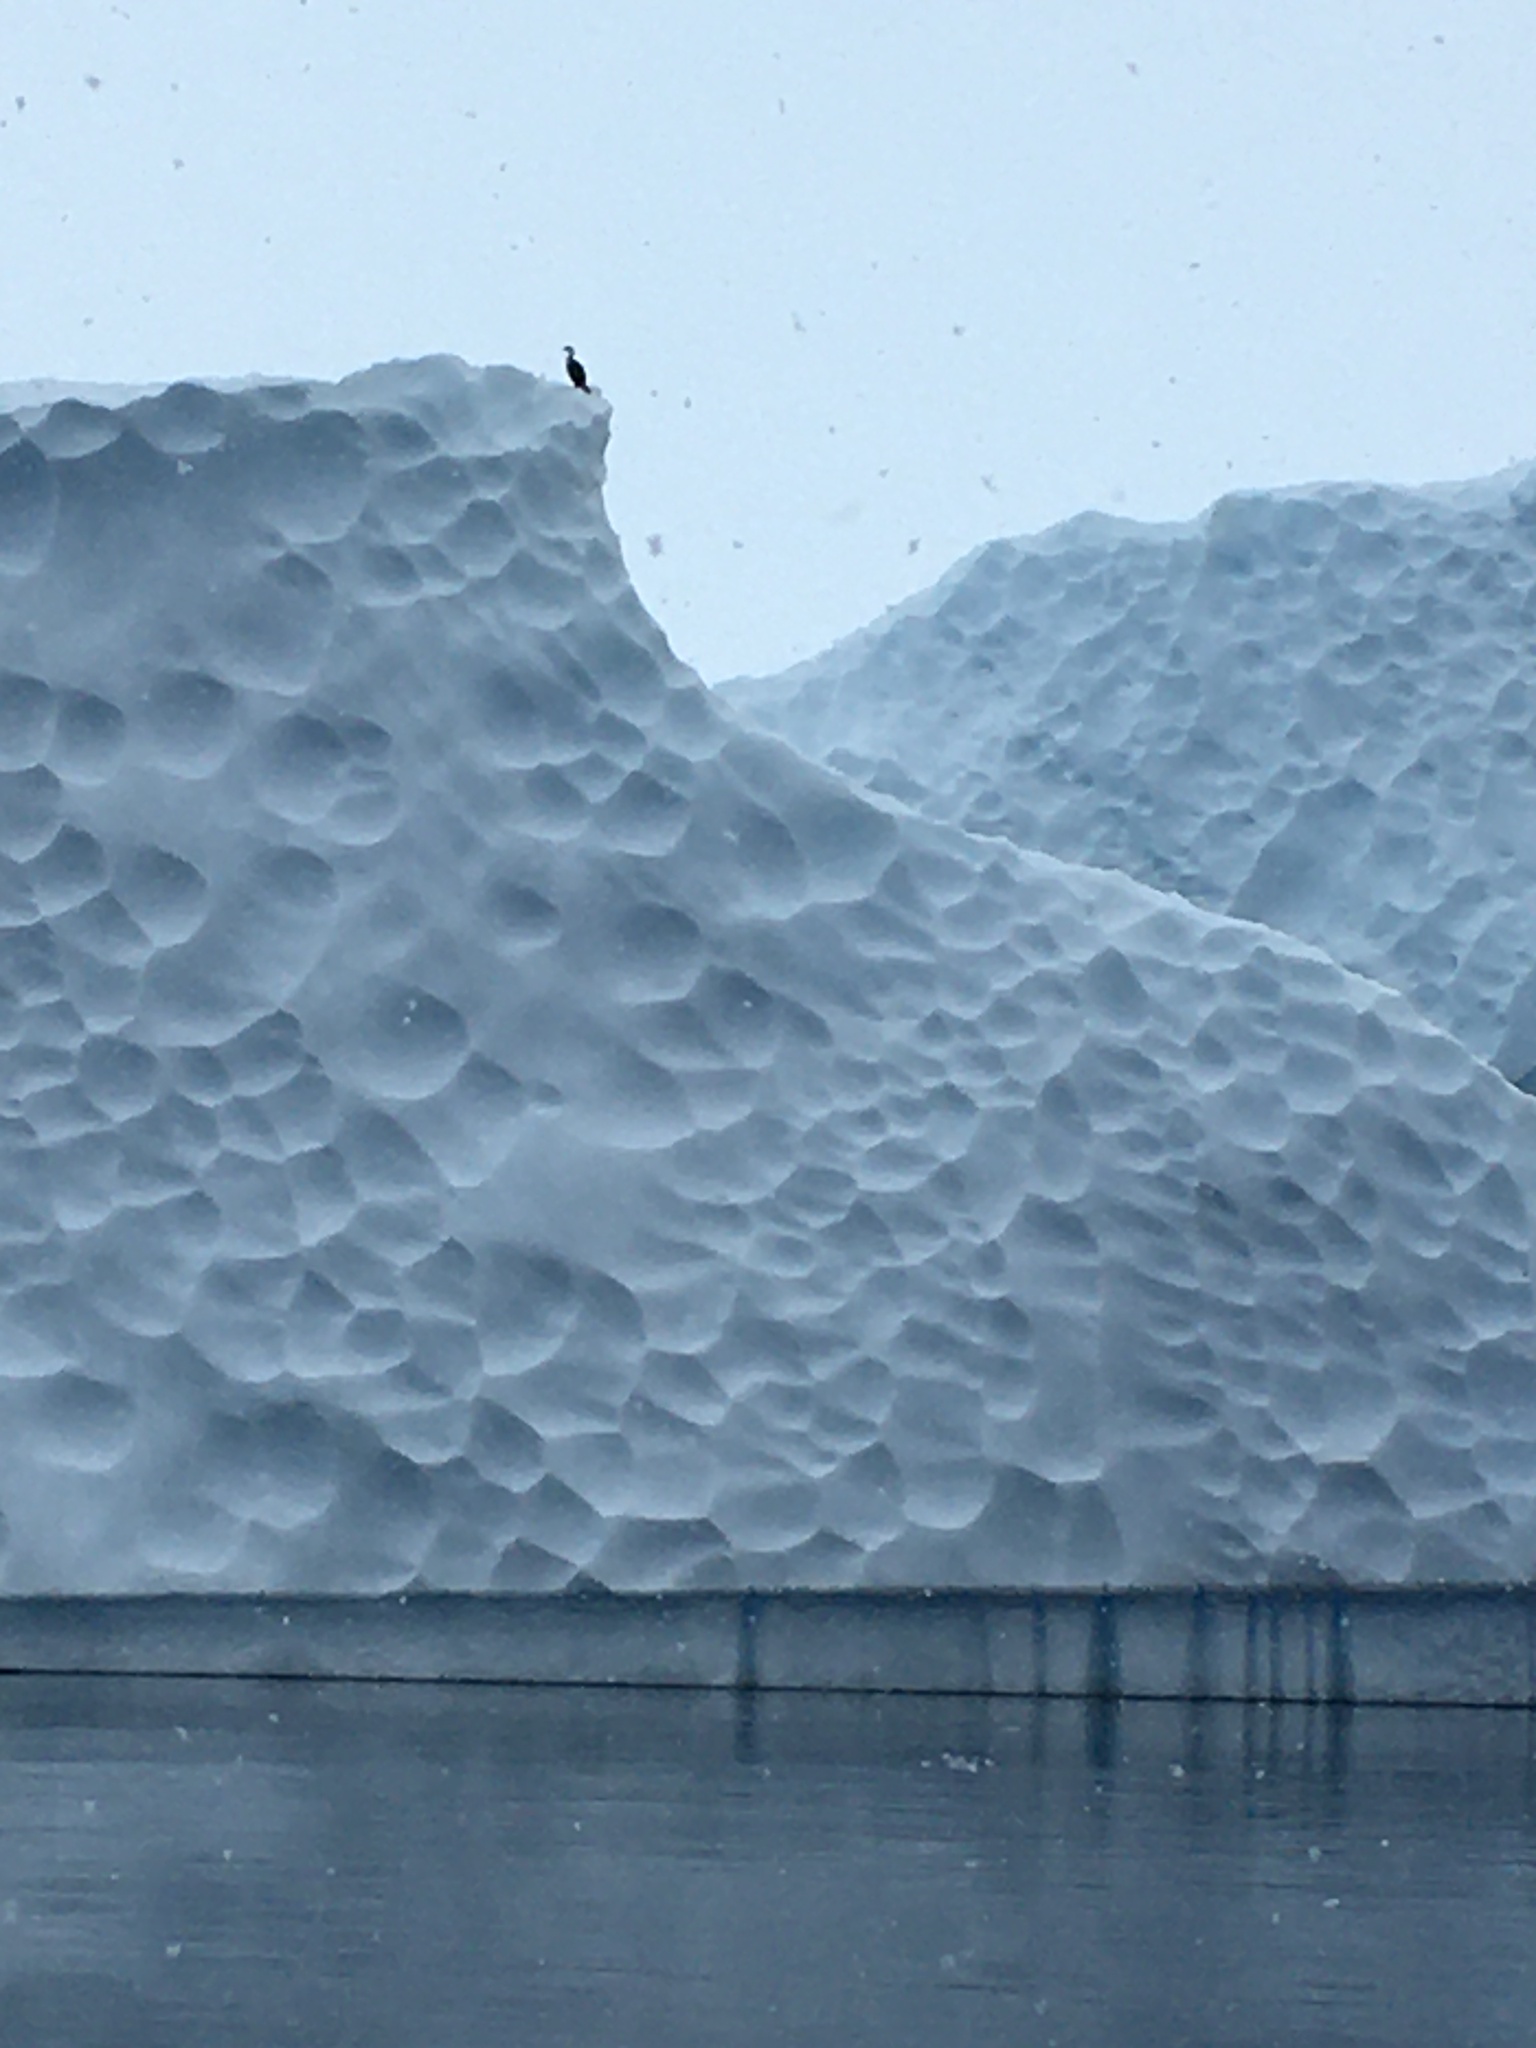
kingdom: Animalia
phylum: Chordata
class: Aves
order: Suliformes
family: Phalacrocoracidae
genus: Leucocarbo
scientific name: Leucocarbo atriceps
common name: Imperial shag
